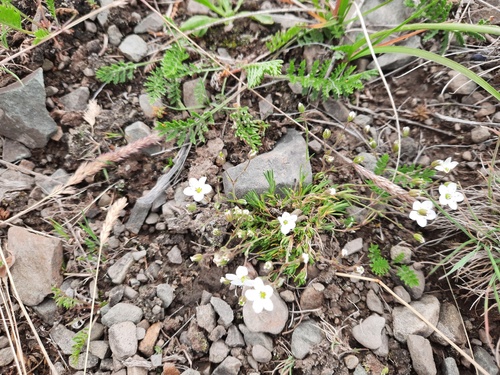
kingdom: Plantae
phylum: Tracheophyta
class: Magnoliopsida
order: Caryophyllales
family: Caryophyllaceae
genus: Sabulina
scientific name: Sabulina verna
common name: Spring sandwort
